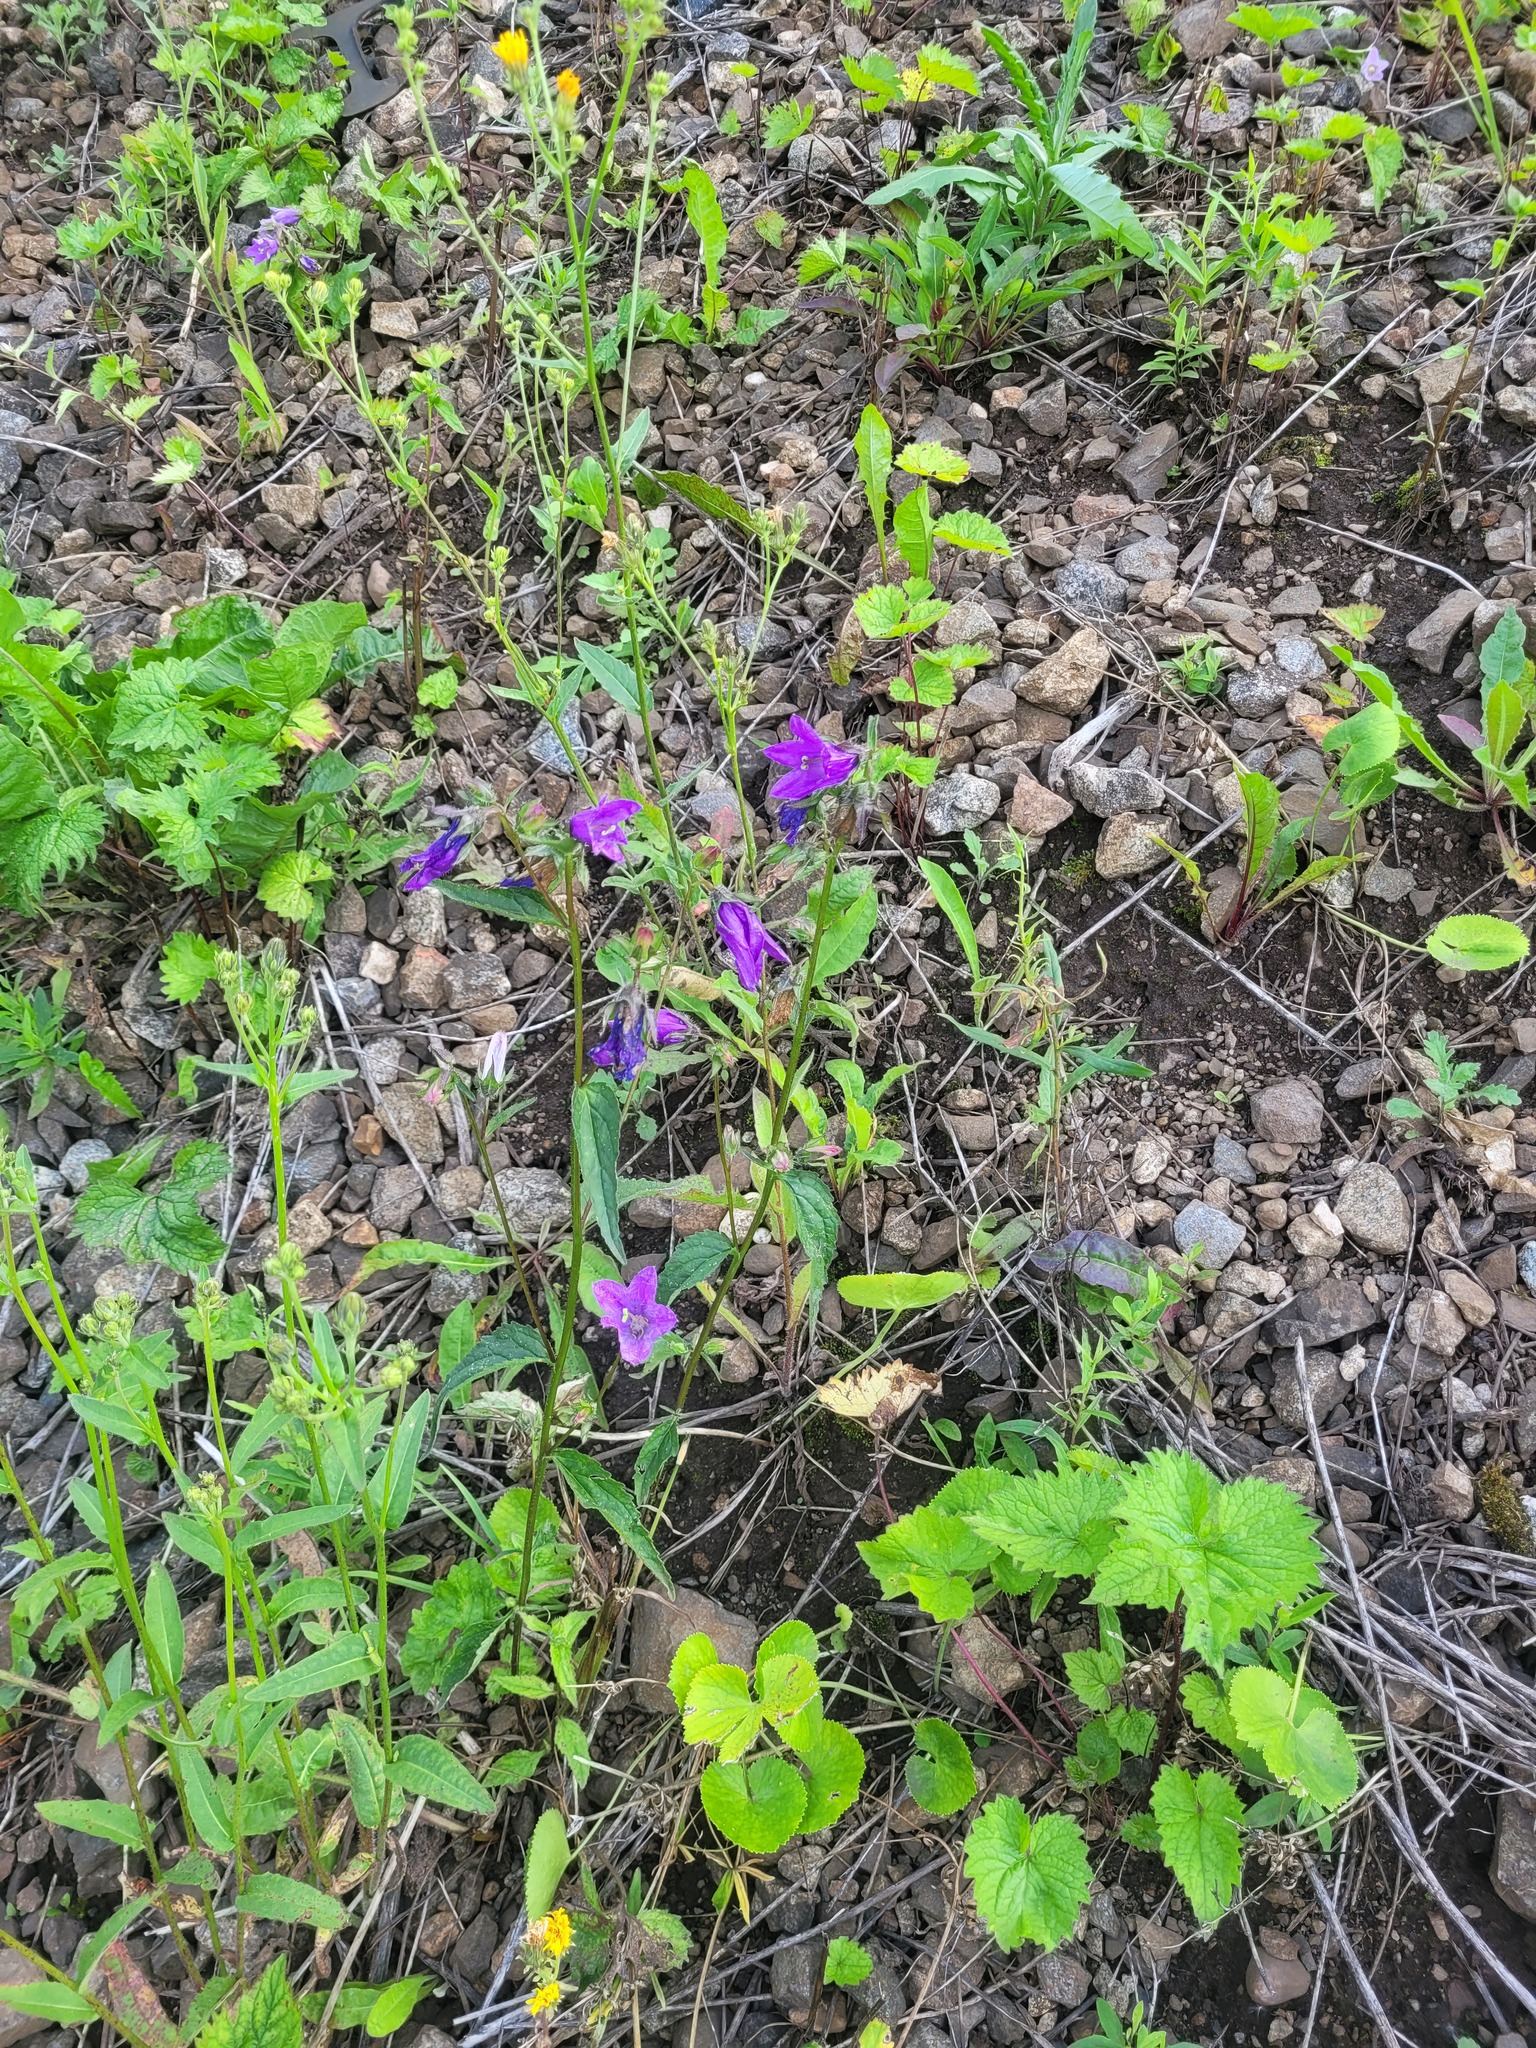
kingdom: Plantae
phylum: Tracheophyta
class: Magnoliopsida
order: Asterales
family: Campanulaceae
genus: Campanula
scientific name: Campanula trachelium
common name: Nettle-leaved bellflower
